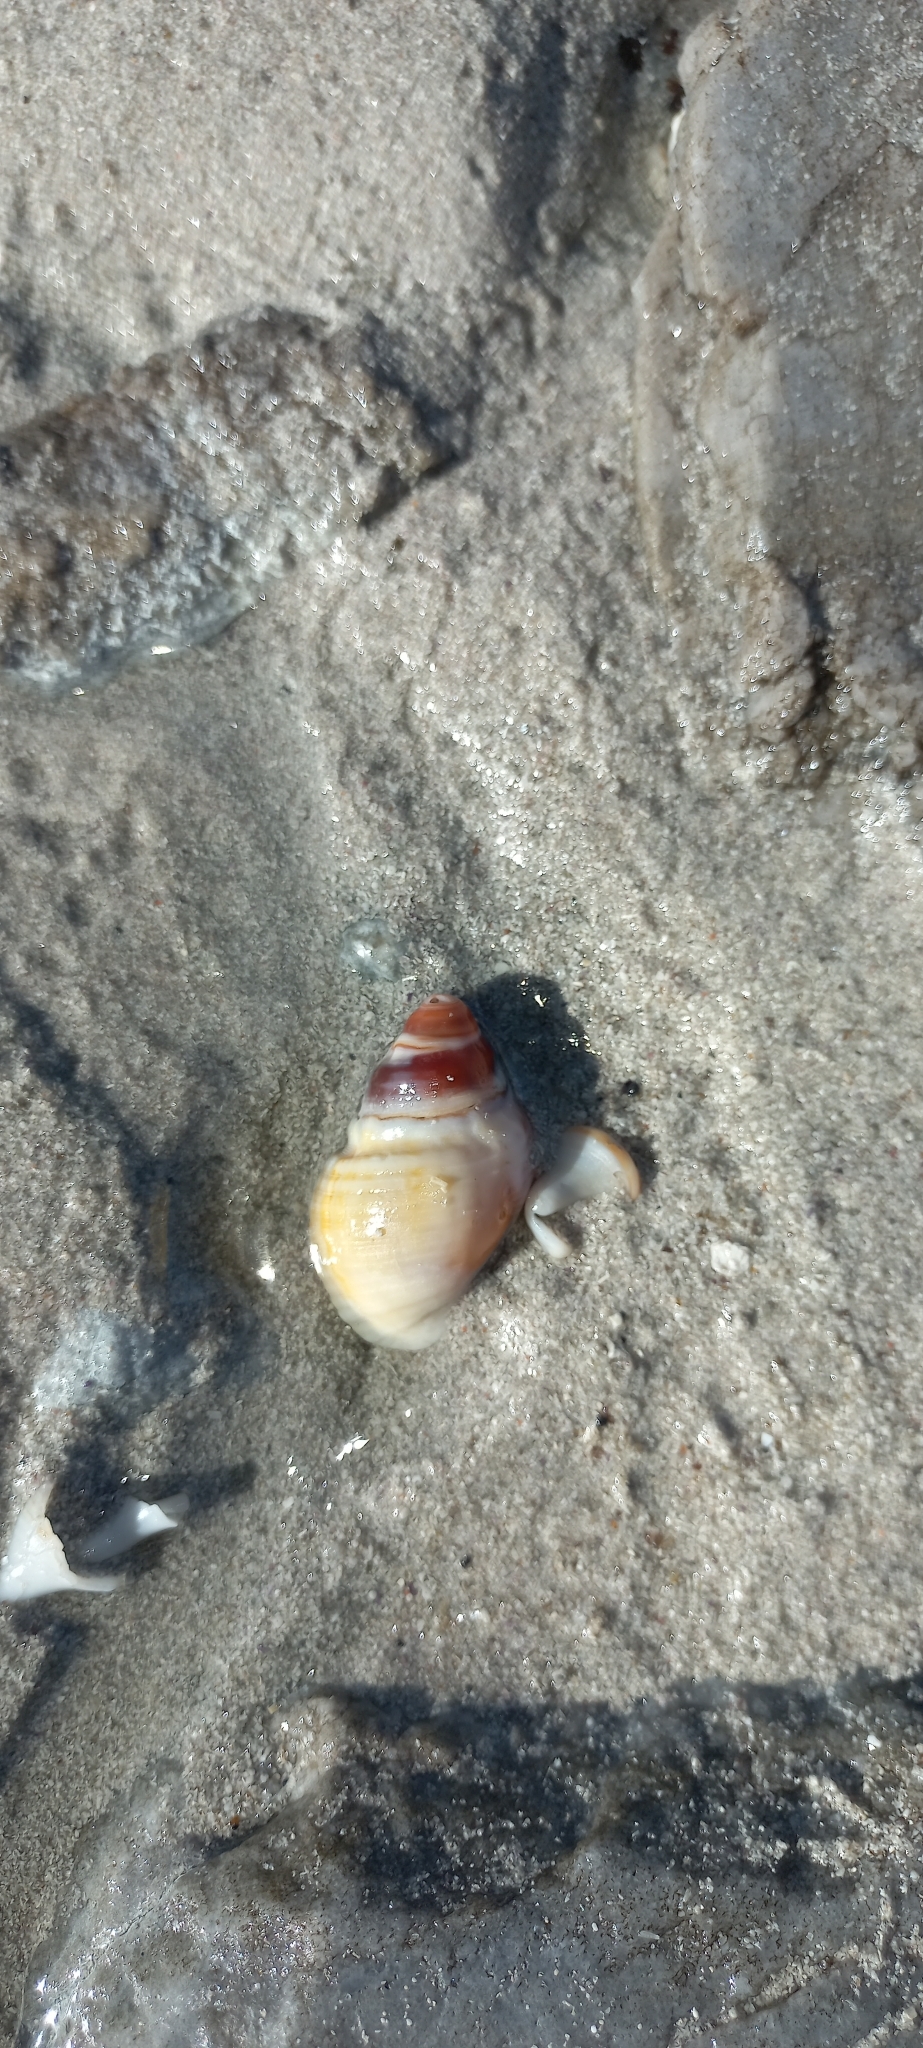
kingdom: Animalia
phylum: Mollusca
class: Gastropoda
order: Neogastropoda
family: Nassariidae
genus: Bullia
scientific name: Bullia laevissima
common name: Fat plough shell
